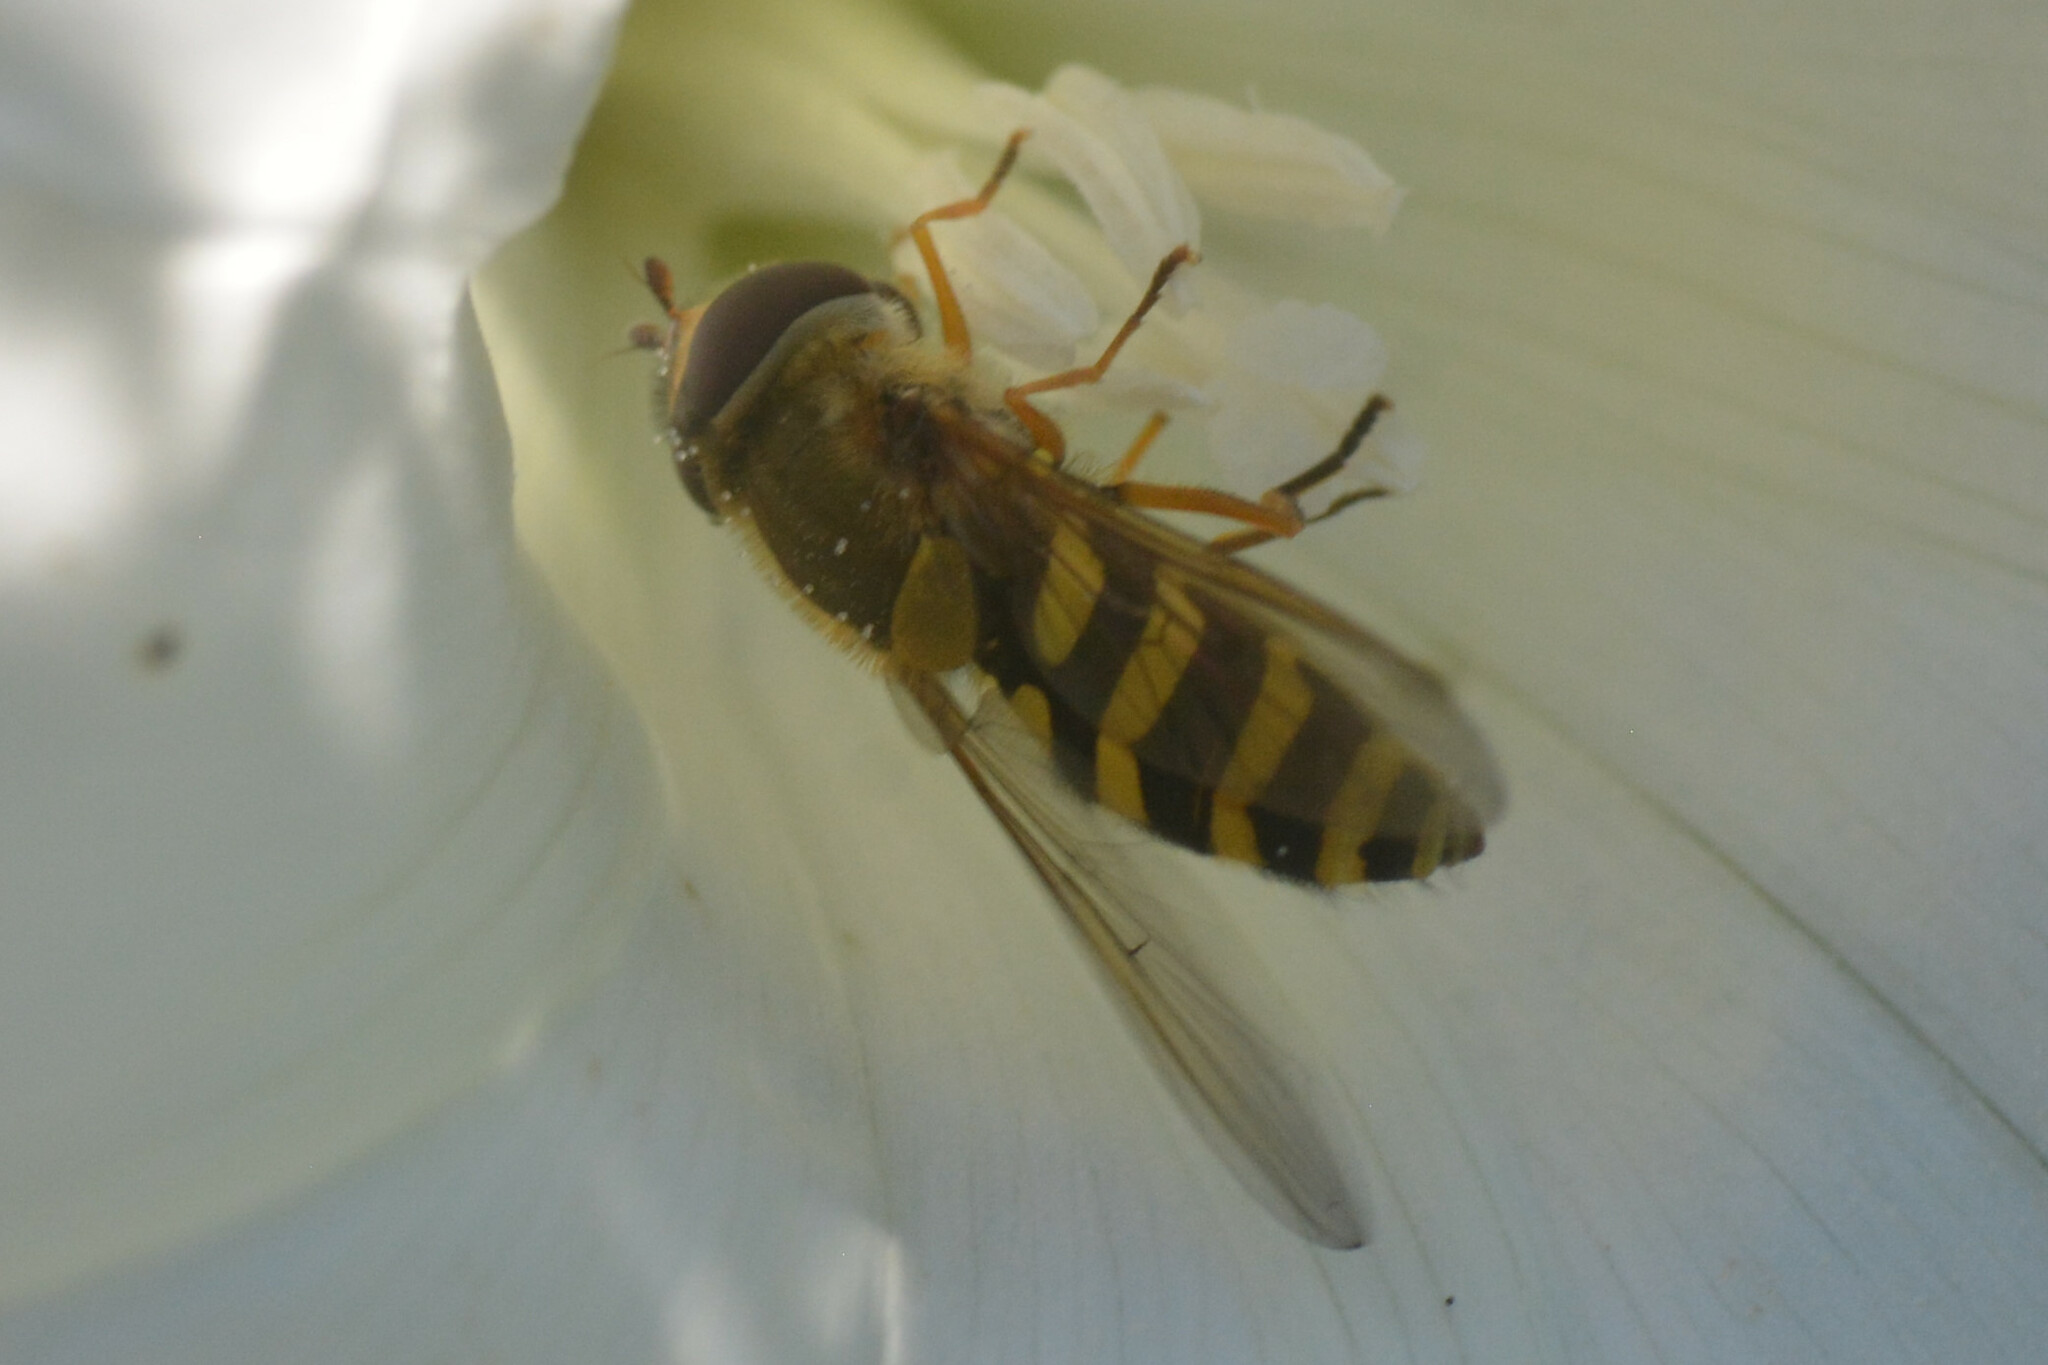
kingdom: Animalia
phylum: Arthropoda
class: Insecta
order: Diptera
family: Syrphidae
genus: Syrphus
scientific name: Syrphus ribesii
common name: Common flower fly
